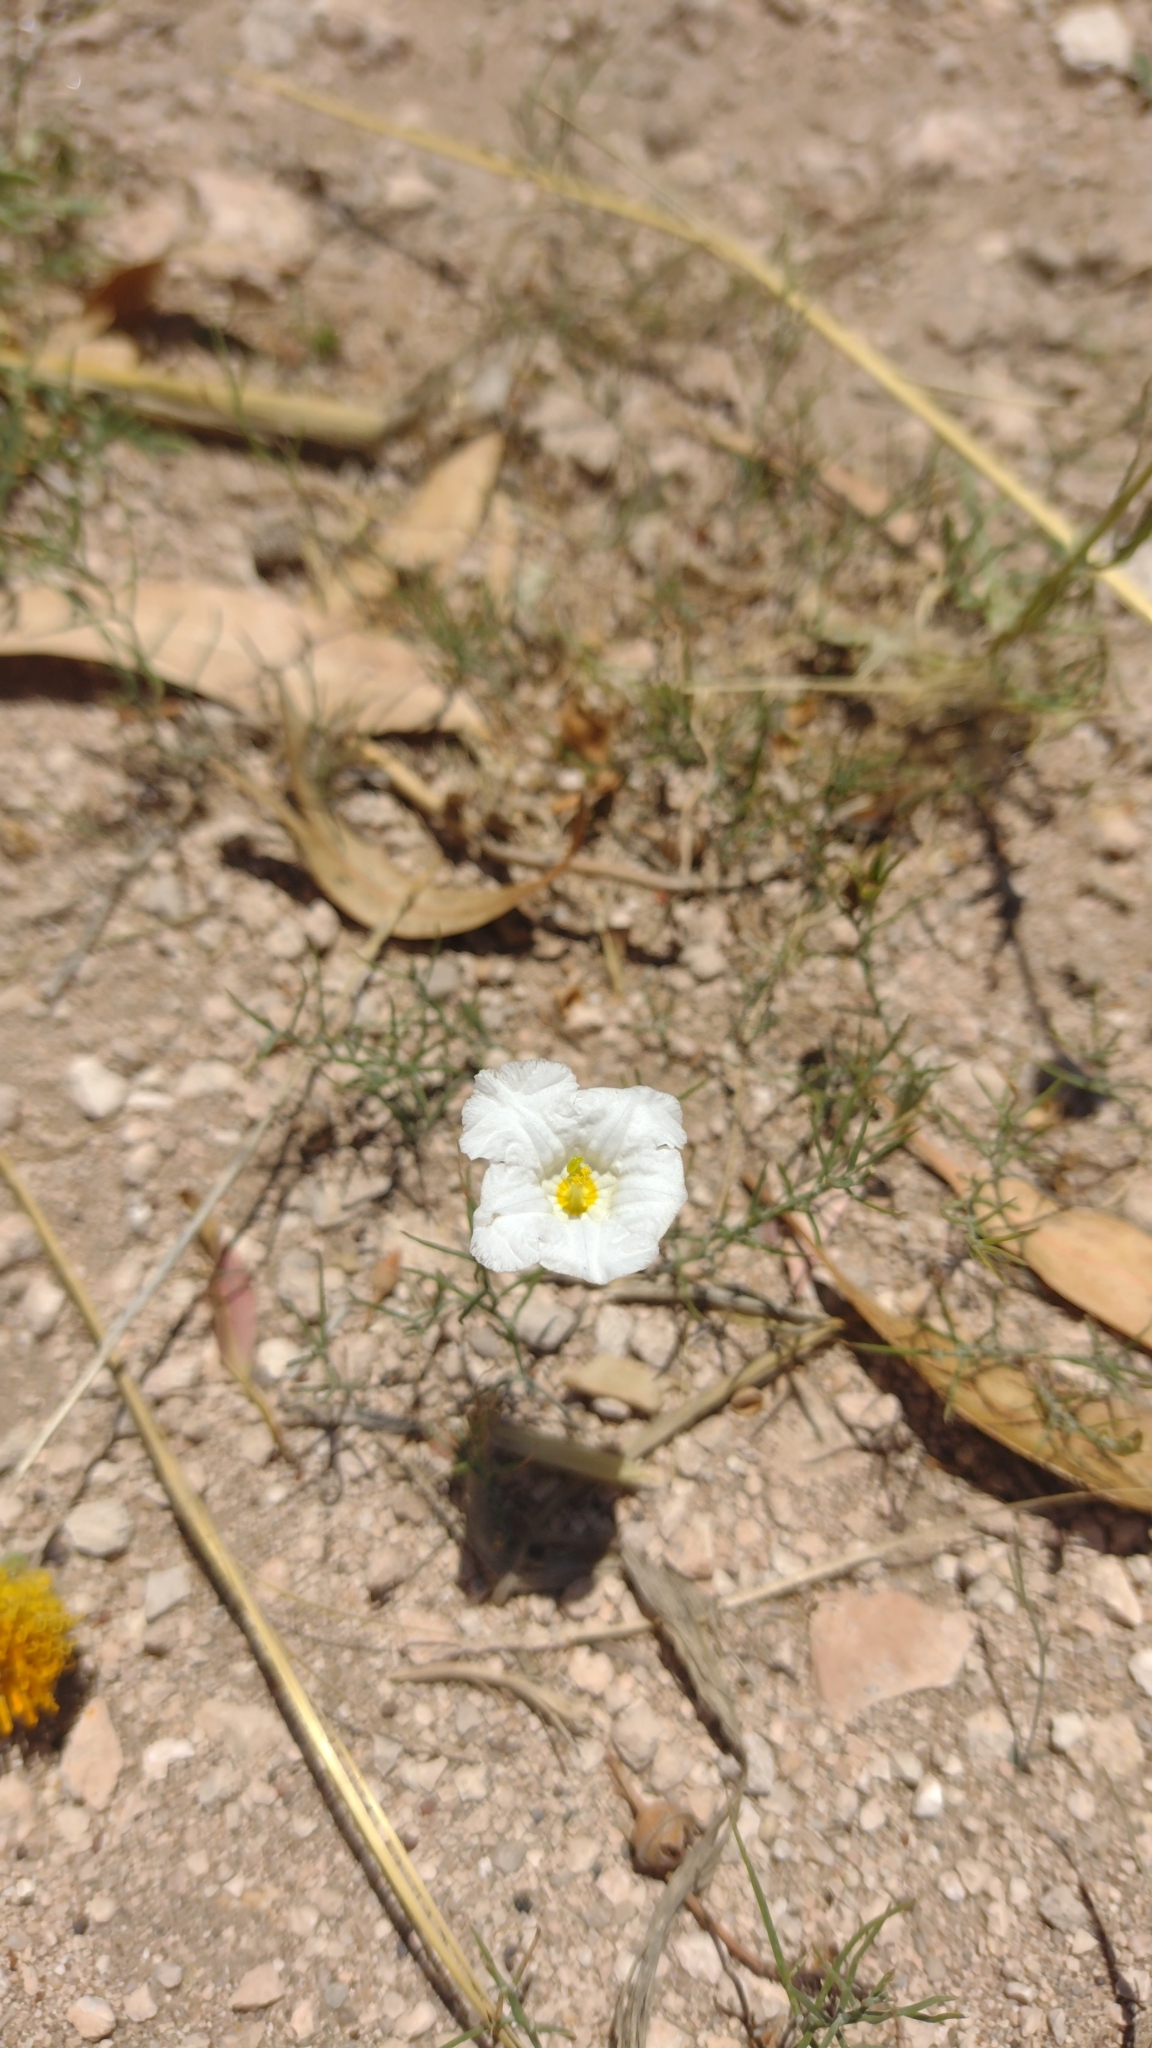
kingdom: Plantae
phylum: Tracheophyta
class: Magnoliopsida
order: Solanales
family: Solanaceae
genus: Nierembergia
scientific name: Nierembergia rigida
